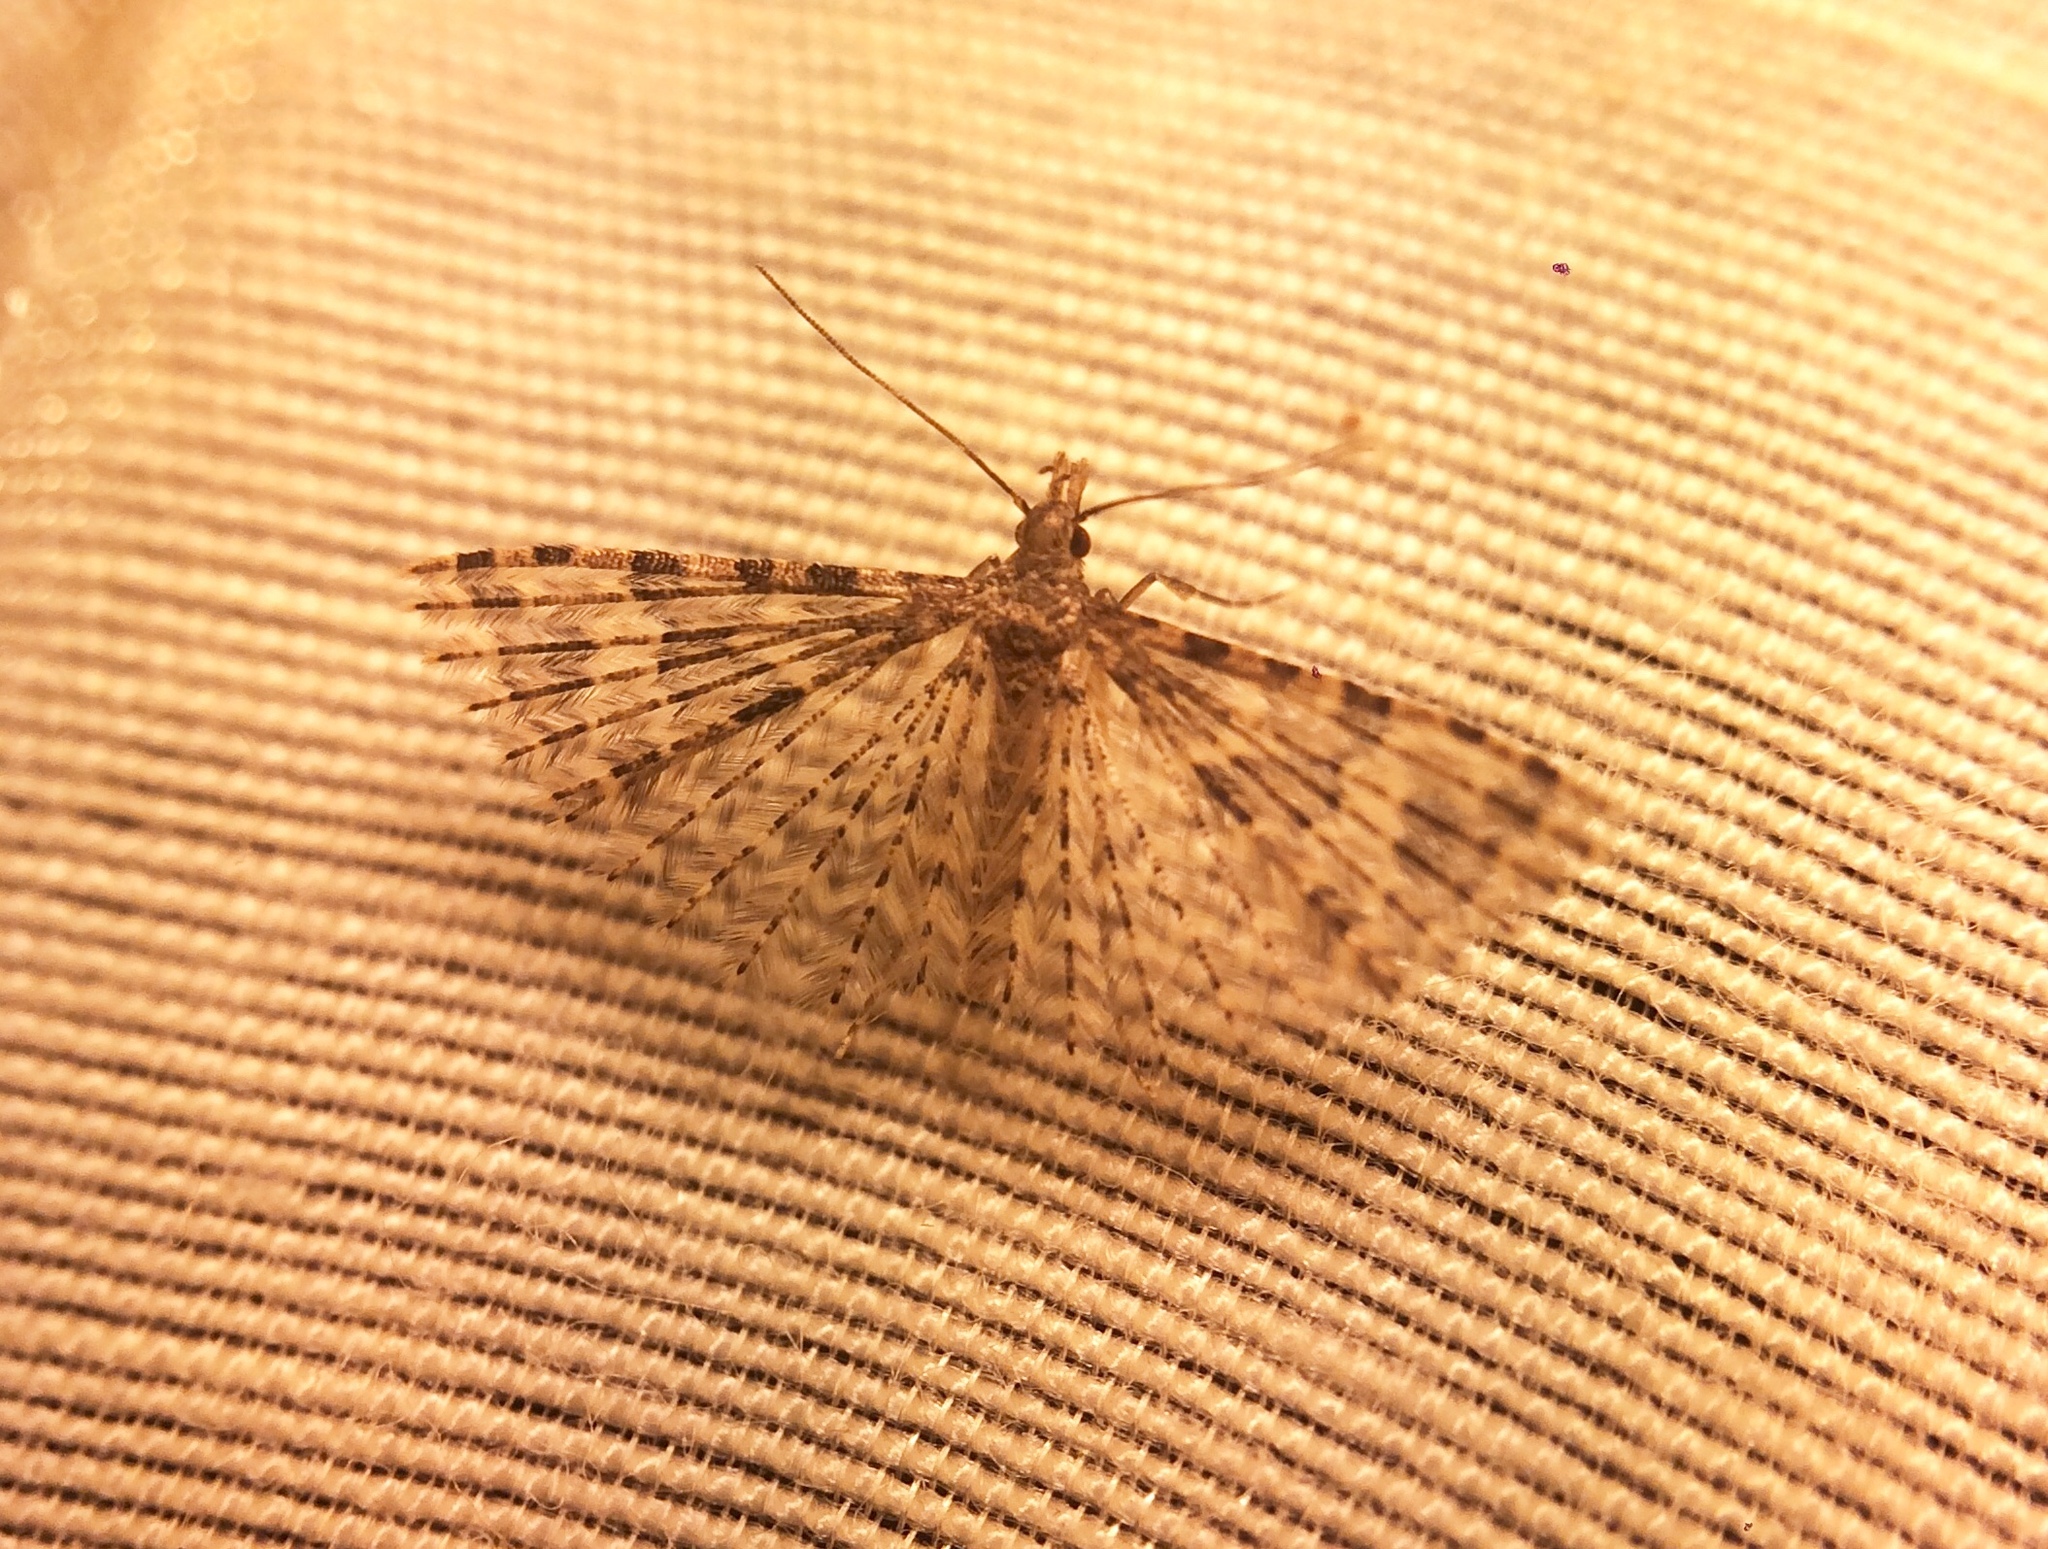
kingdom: Animalia
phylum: Arthropoda
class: Insecta
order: Lepidoptera
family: Alucitidae
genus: Alucita
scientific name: Alucita hexadactyla
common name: Twenty-plume moth
